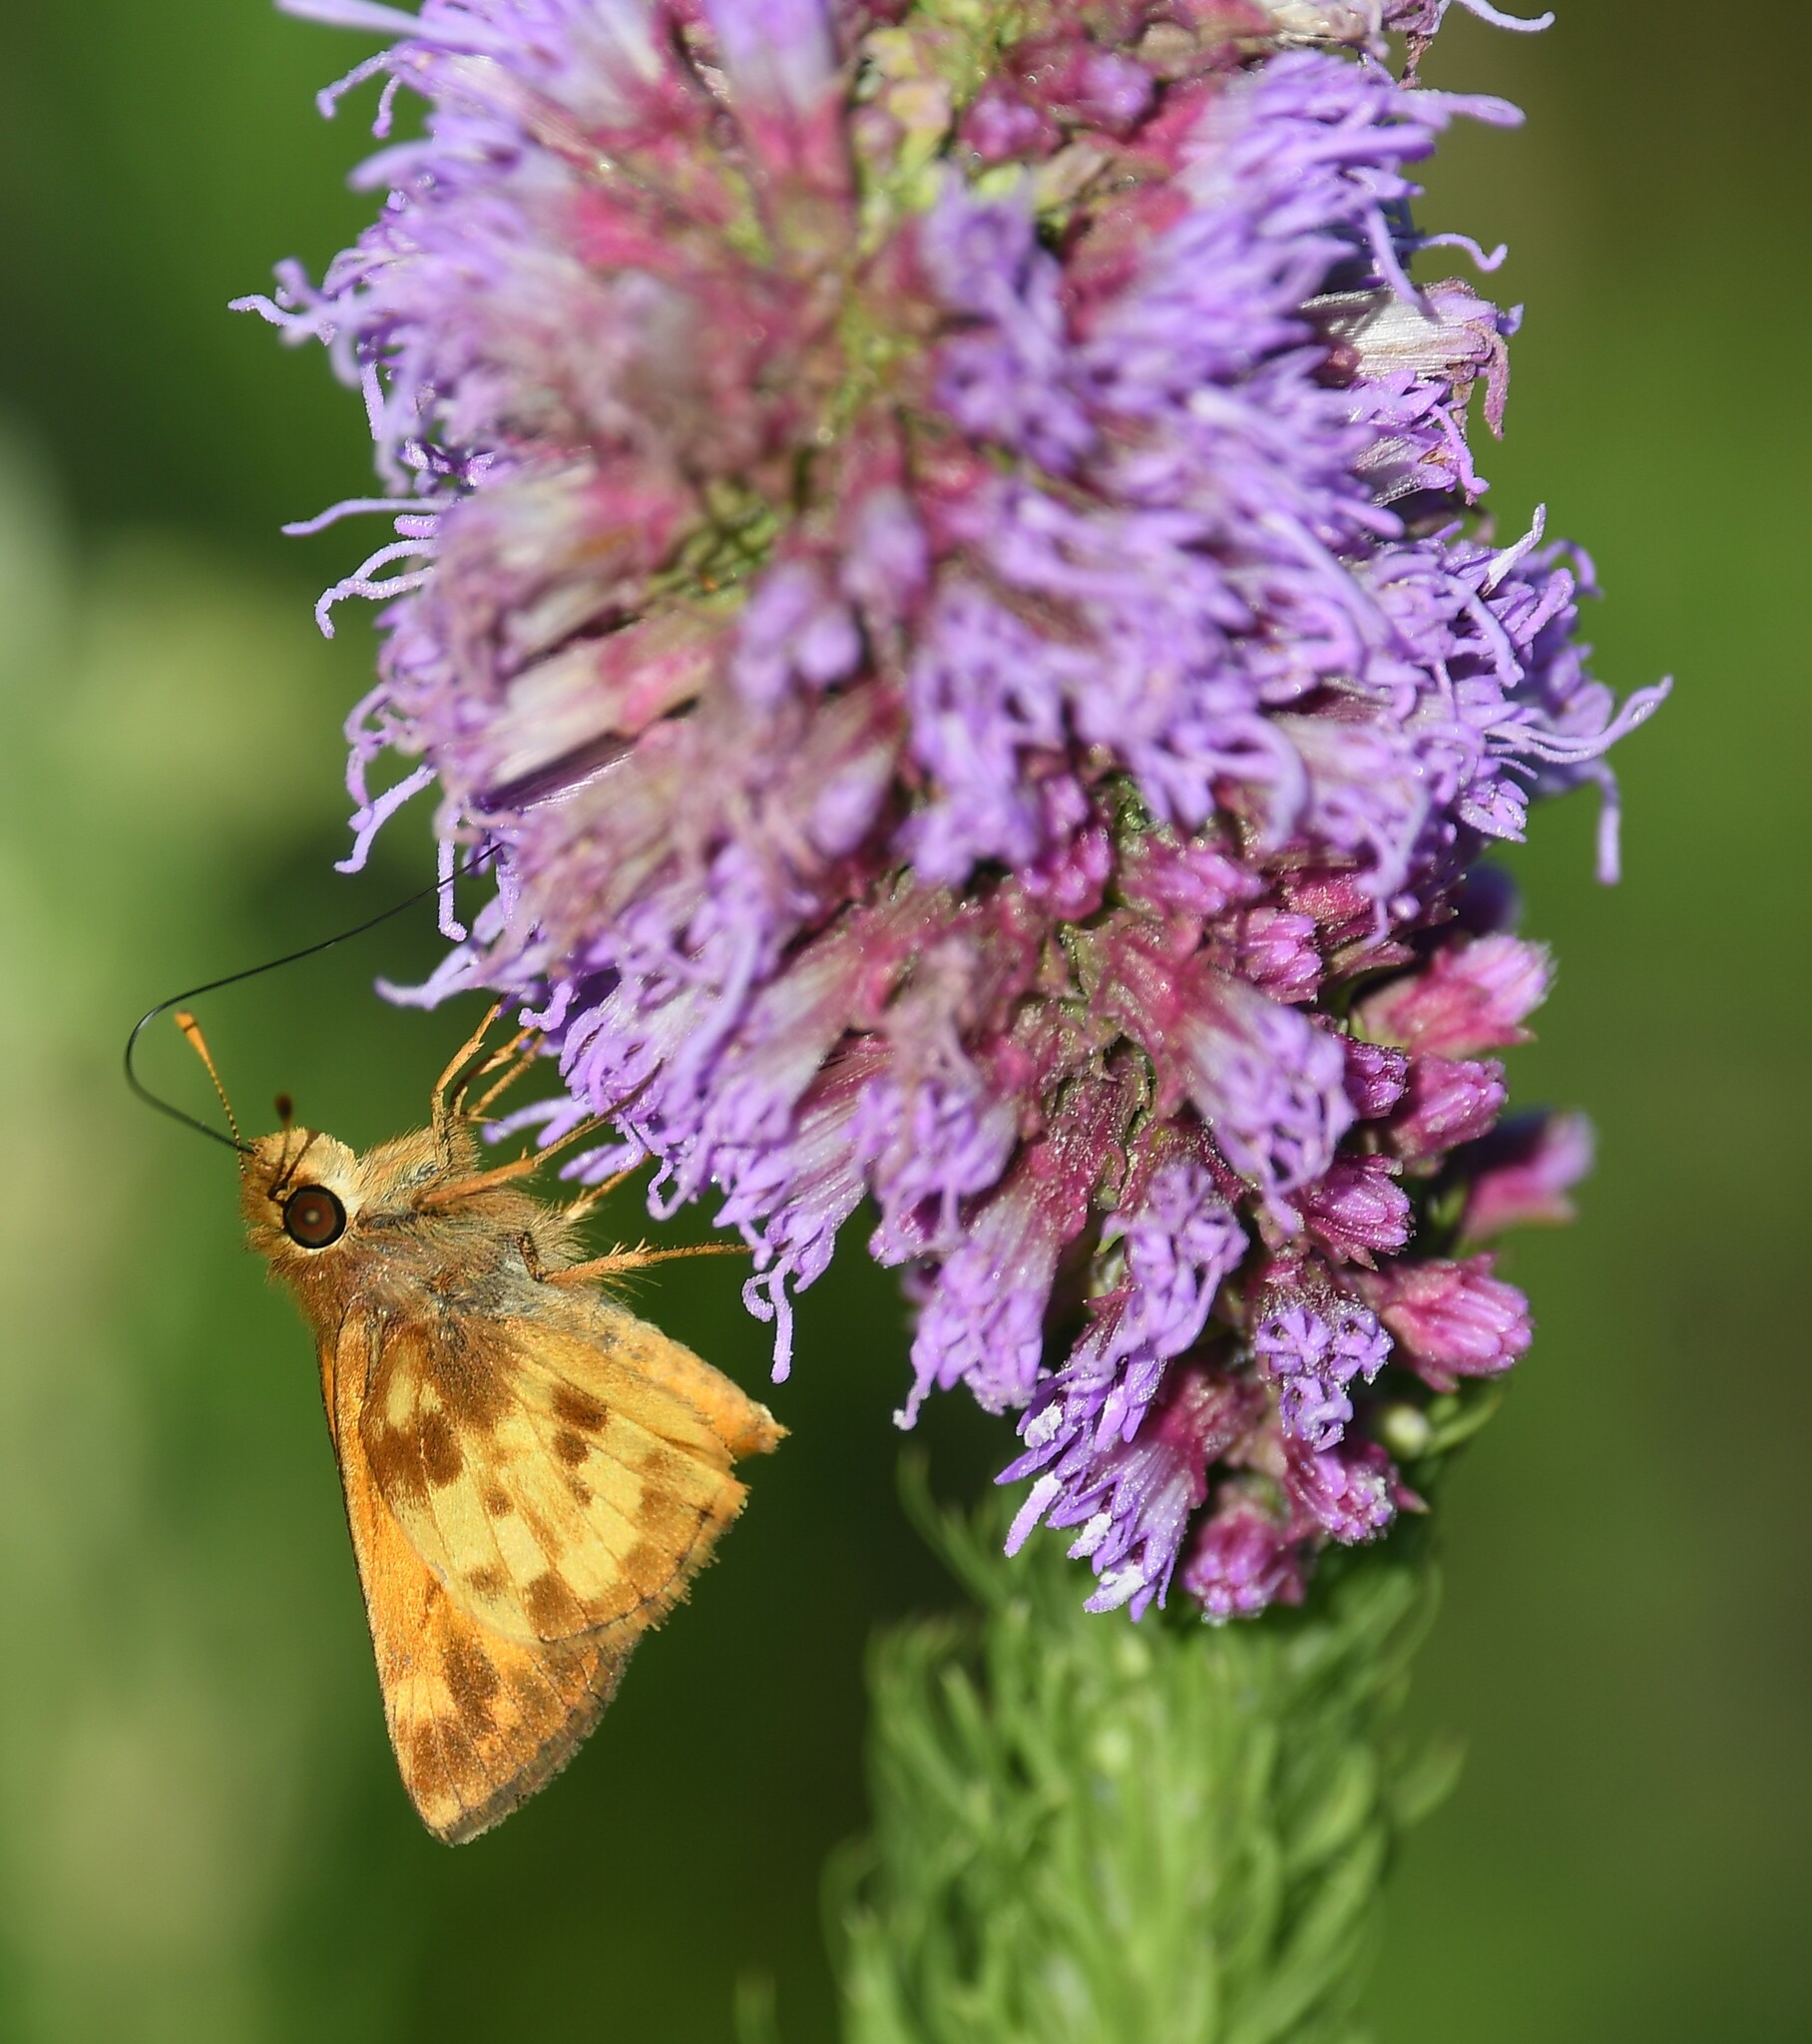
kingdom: Animalia
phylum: Arthropoda
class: Insecta
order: Lepidoptera
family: Hesperiidae
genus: Lon
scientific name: Lon zabulon
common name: Zabulon skipper
